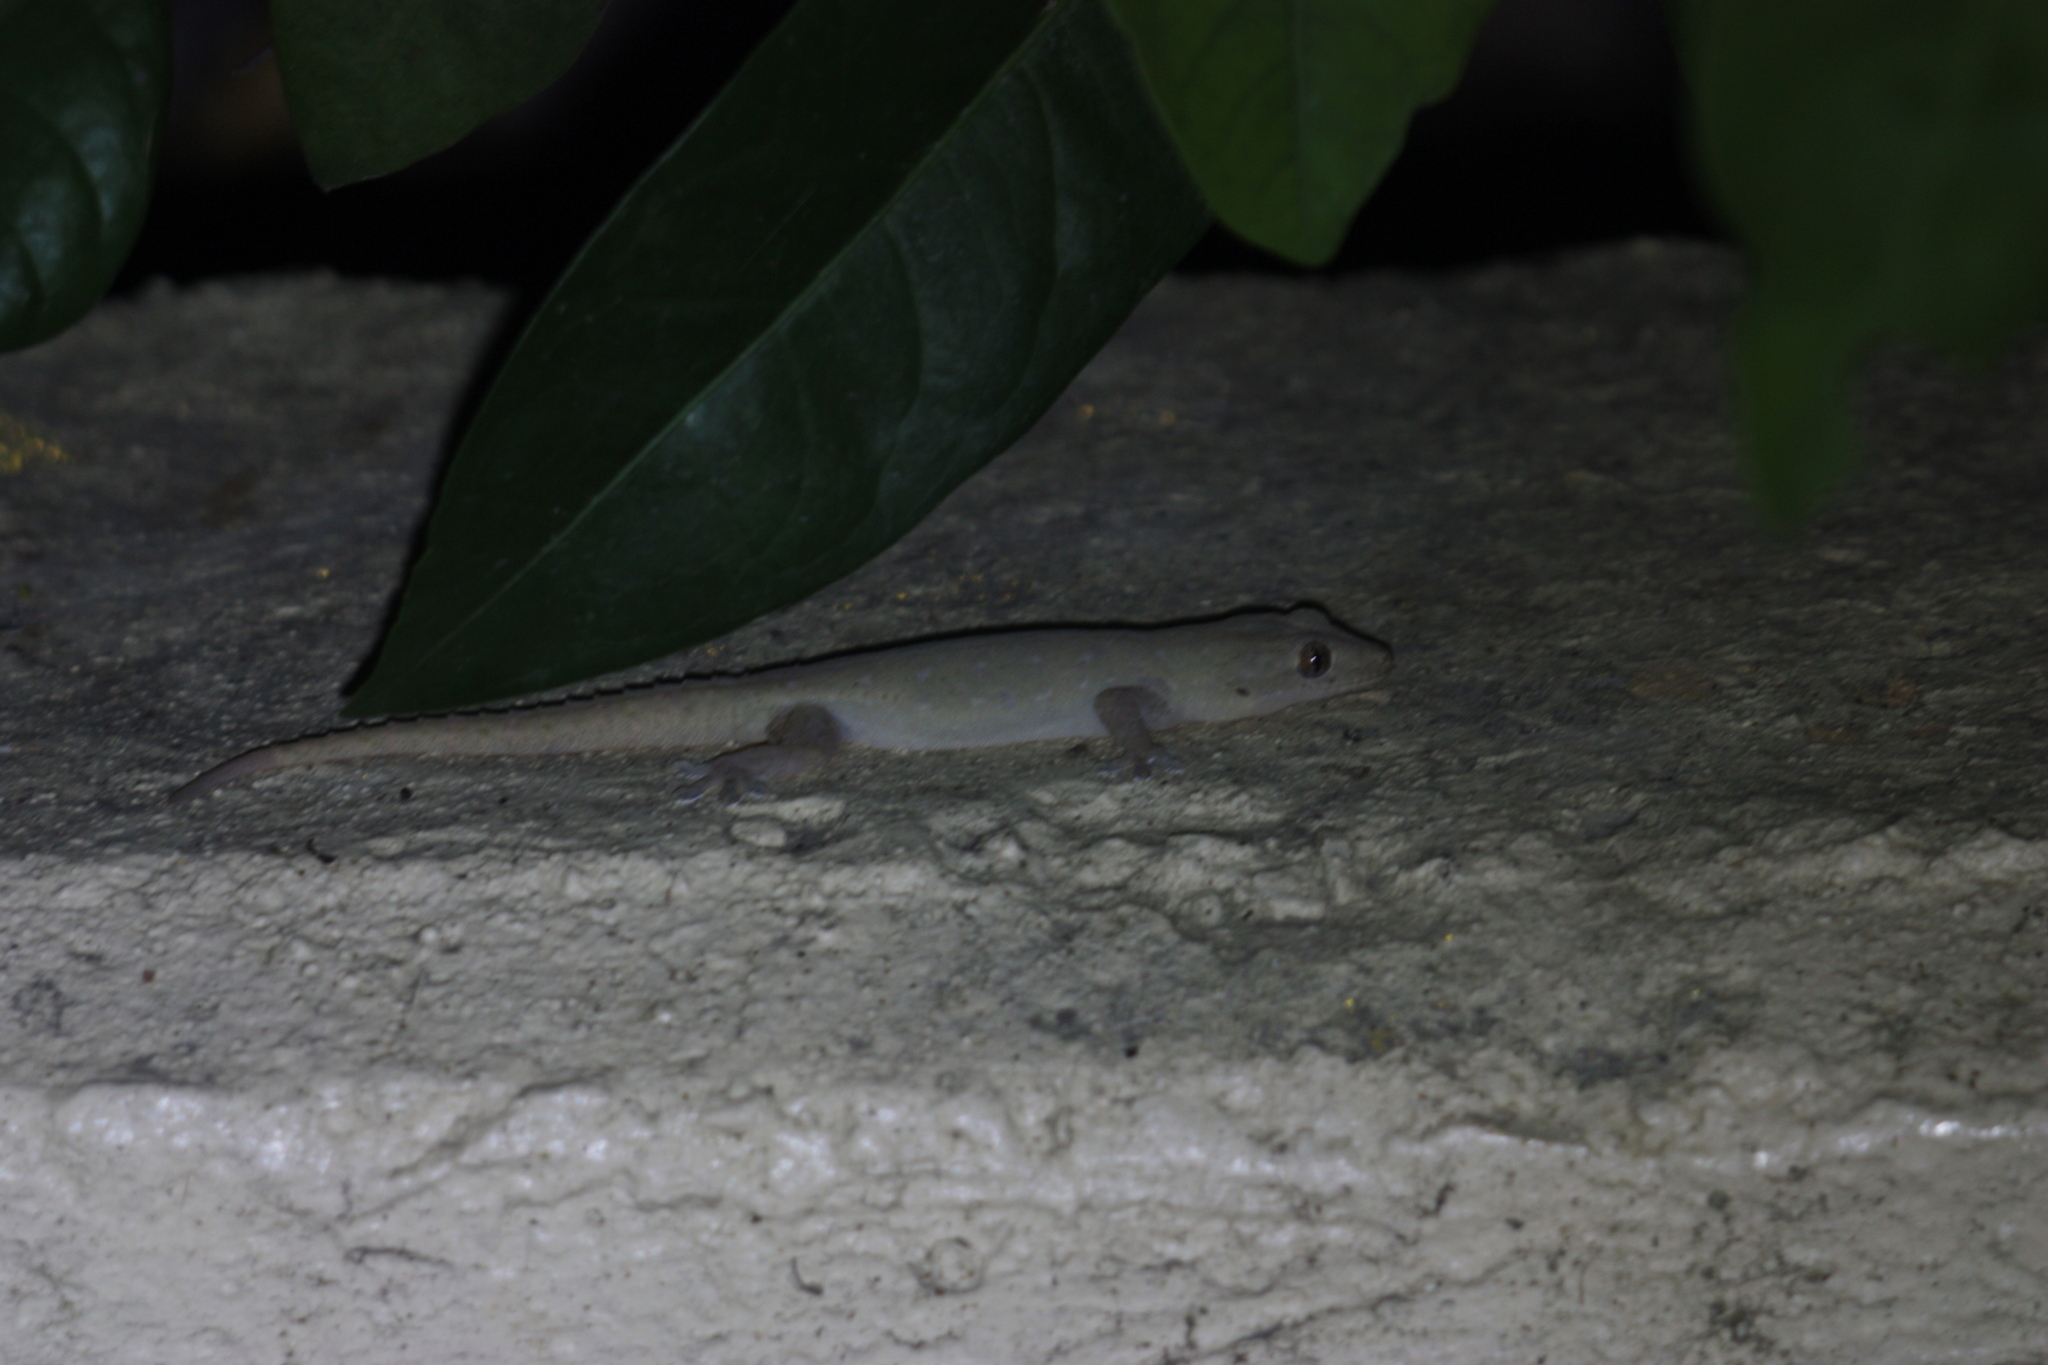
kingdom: Animalia
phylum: Chordata
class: Squamata
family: Gekkonidae
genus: Hemidactylus
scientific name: Hemidactylus frenatus
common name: Common house gecko
